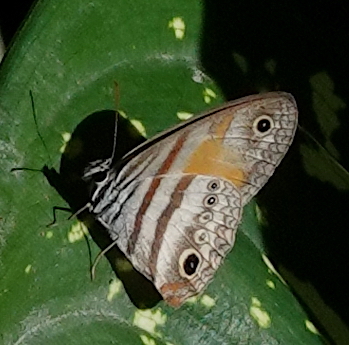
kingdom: Animalia
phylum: Arthropoda
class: Insecta
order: Lepidoptera
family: Nymphalidae
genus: Inbio
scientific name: Inbio hilara
